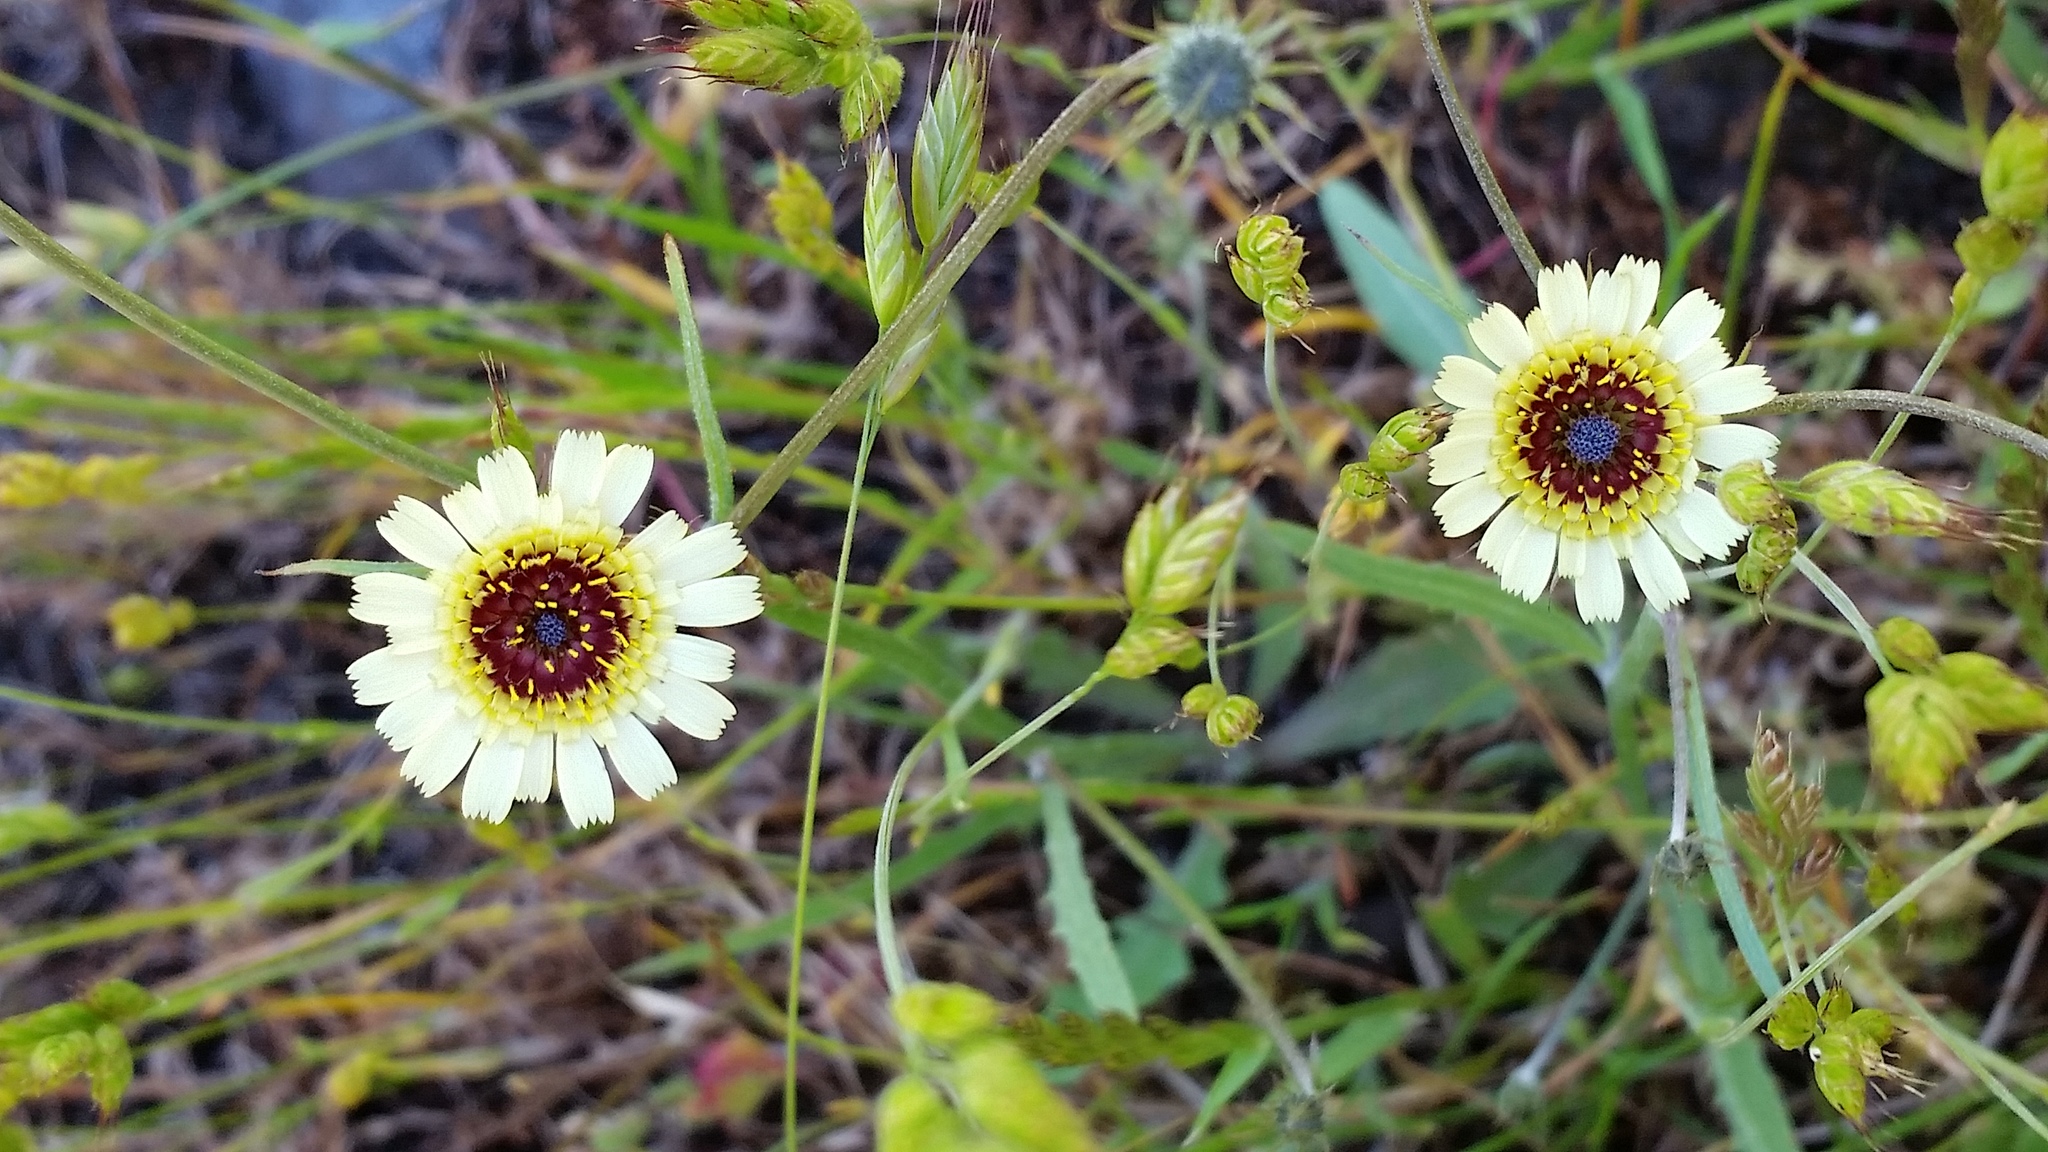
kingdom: Plantae
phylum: Tracheophyta
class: Magnoliopsida
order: Asterales
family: Asteraceae
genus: Tolpis
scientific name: Tolpis barbata
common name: Yellow hawkweed
